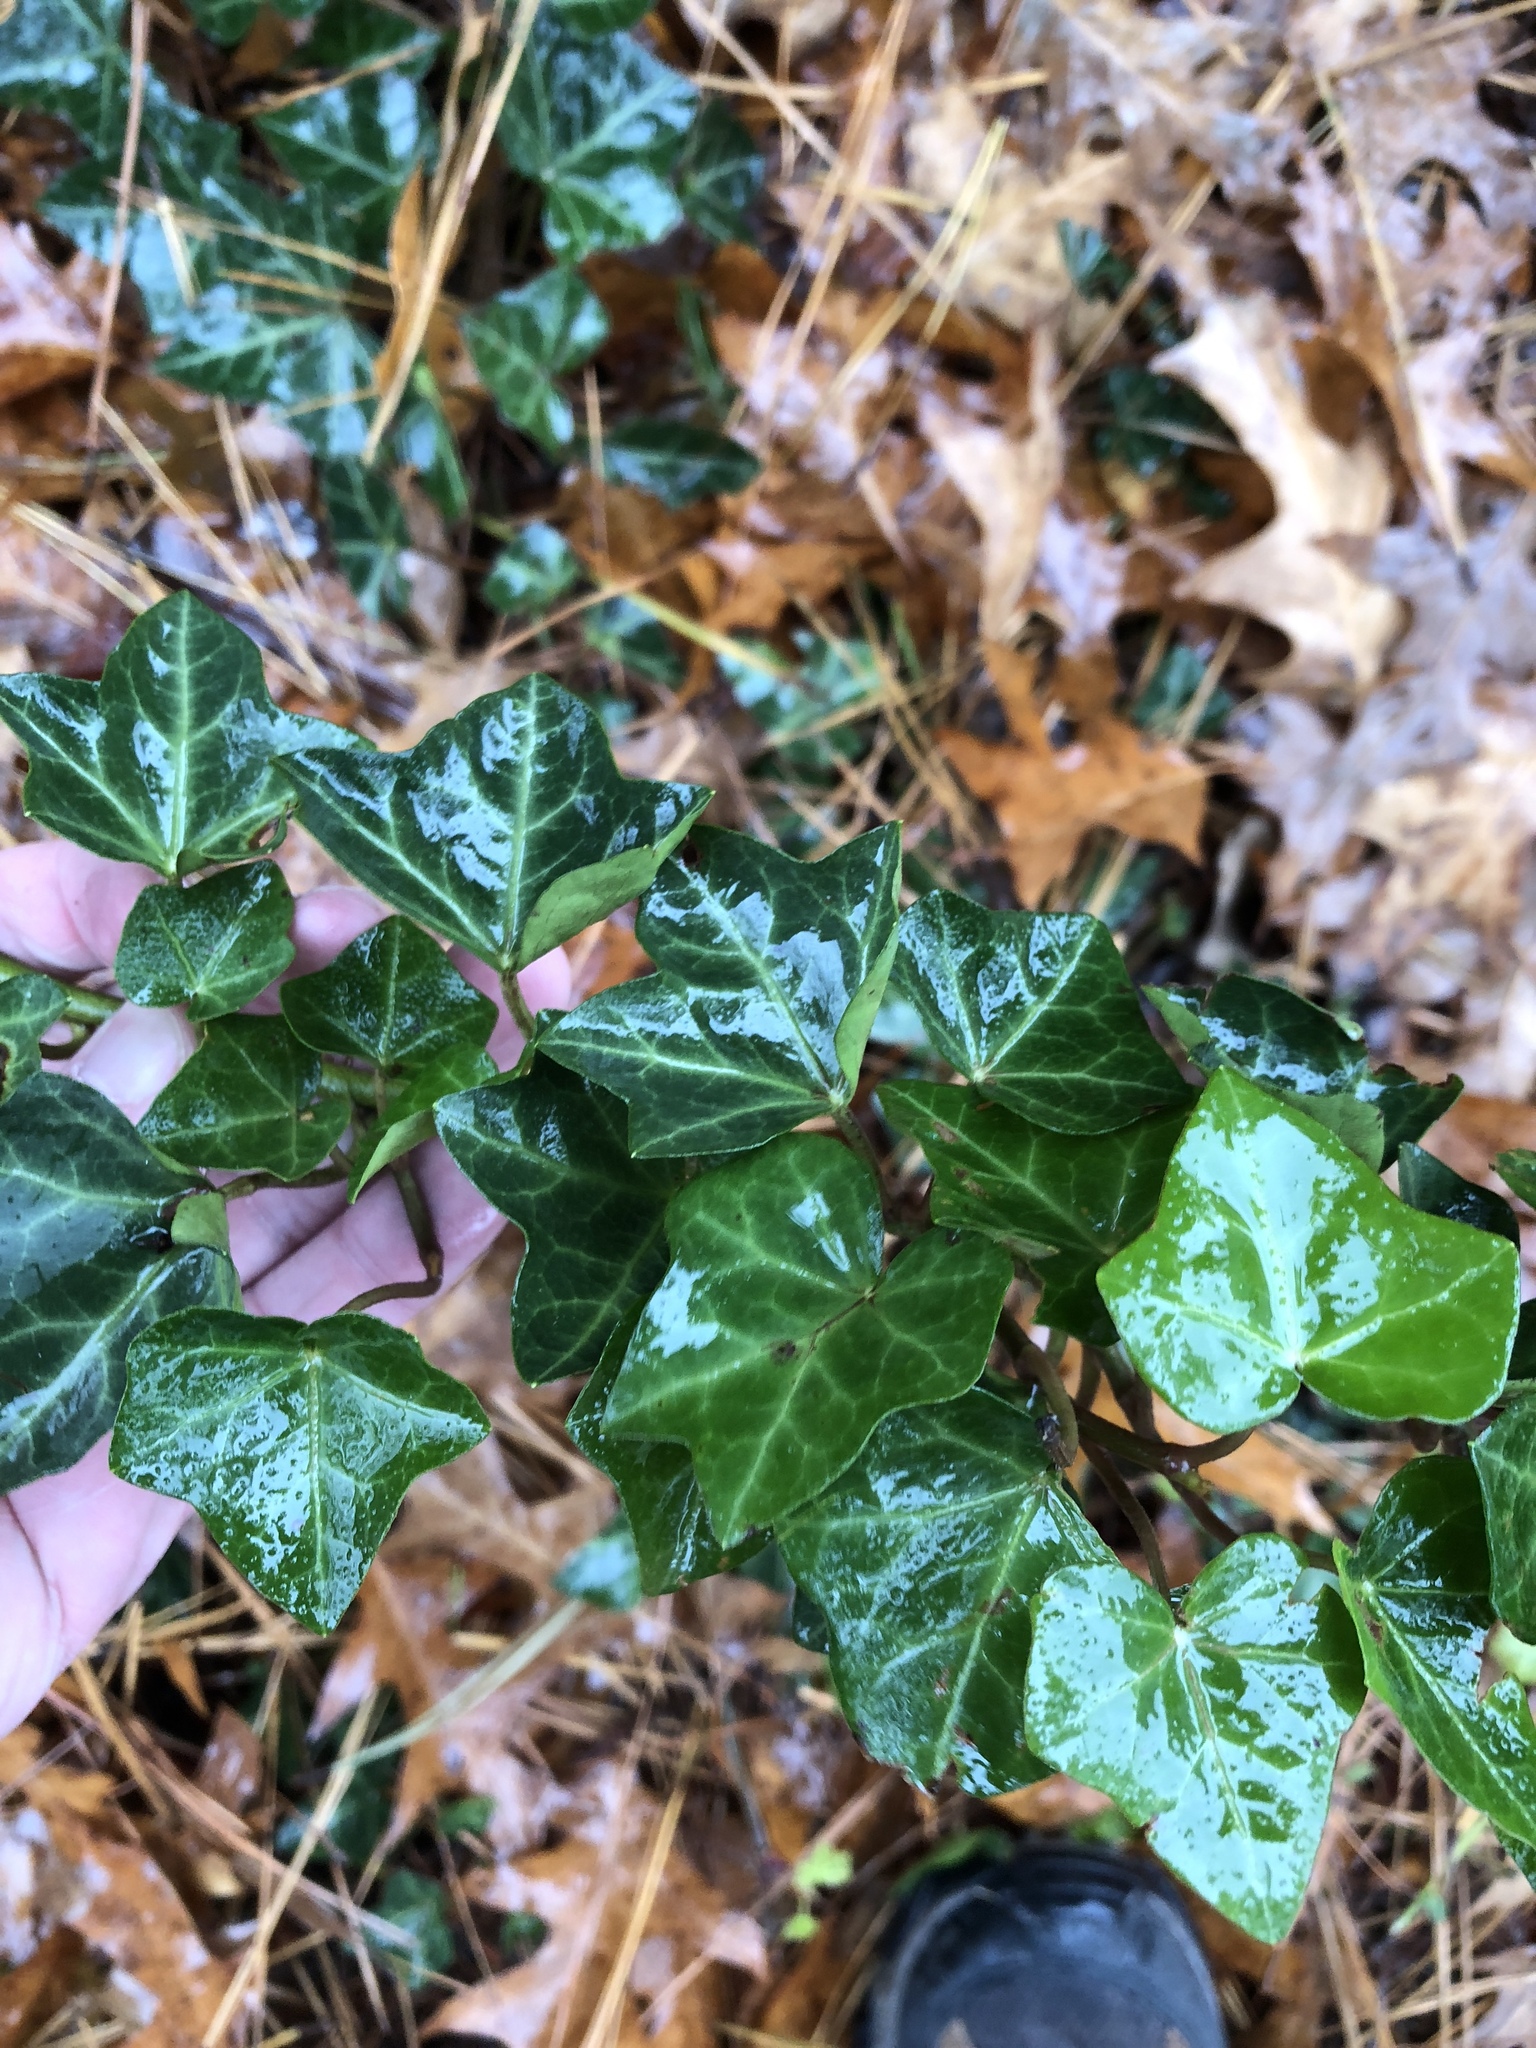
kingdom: Plantae
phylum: Tracheophyta
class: Magnoliopsida
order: Apiales
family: Araliaceae
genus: Hedera
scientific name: Hedera helix
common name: Ivy
